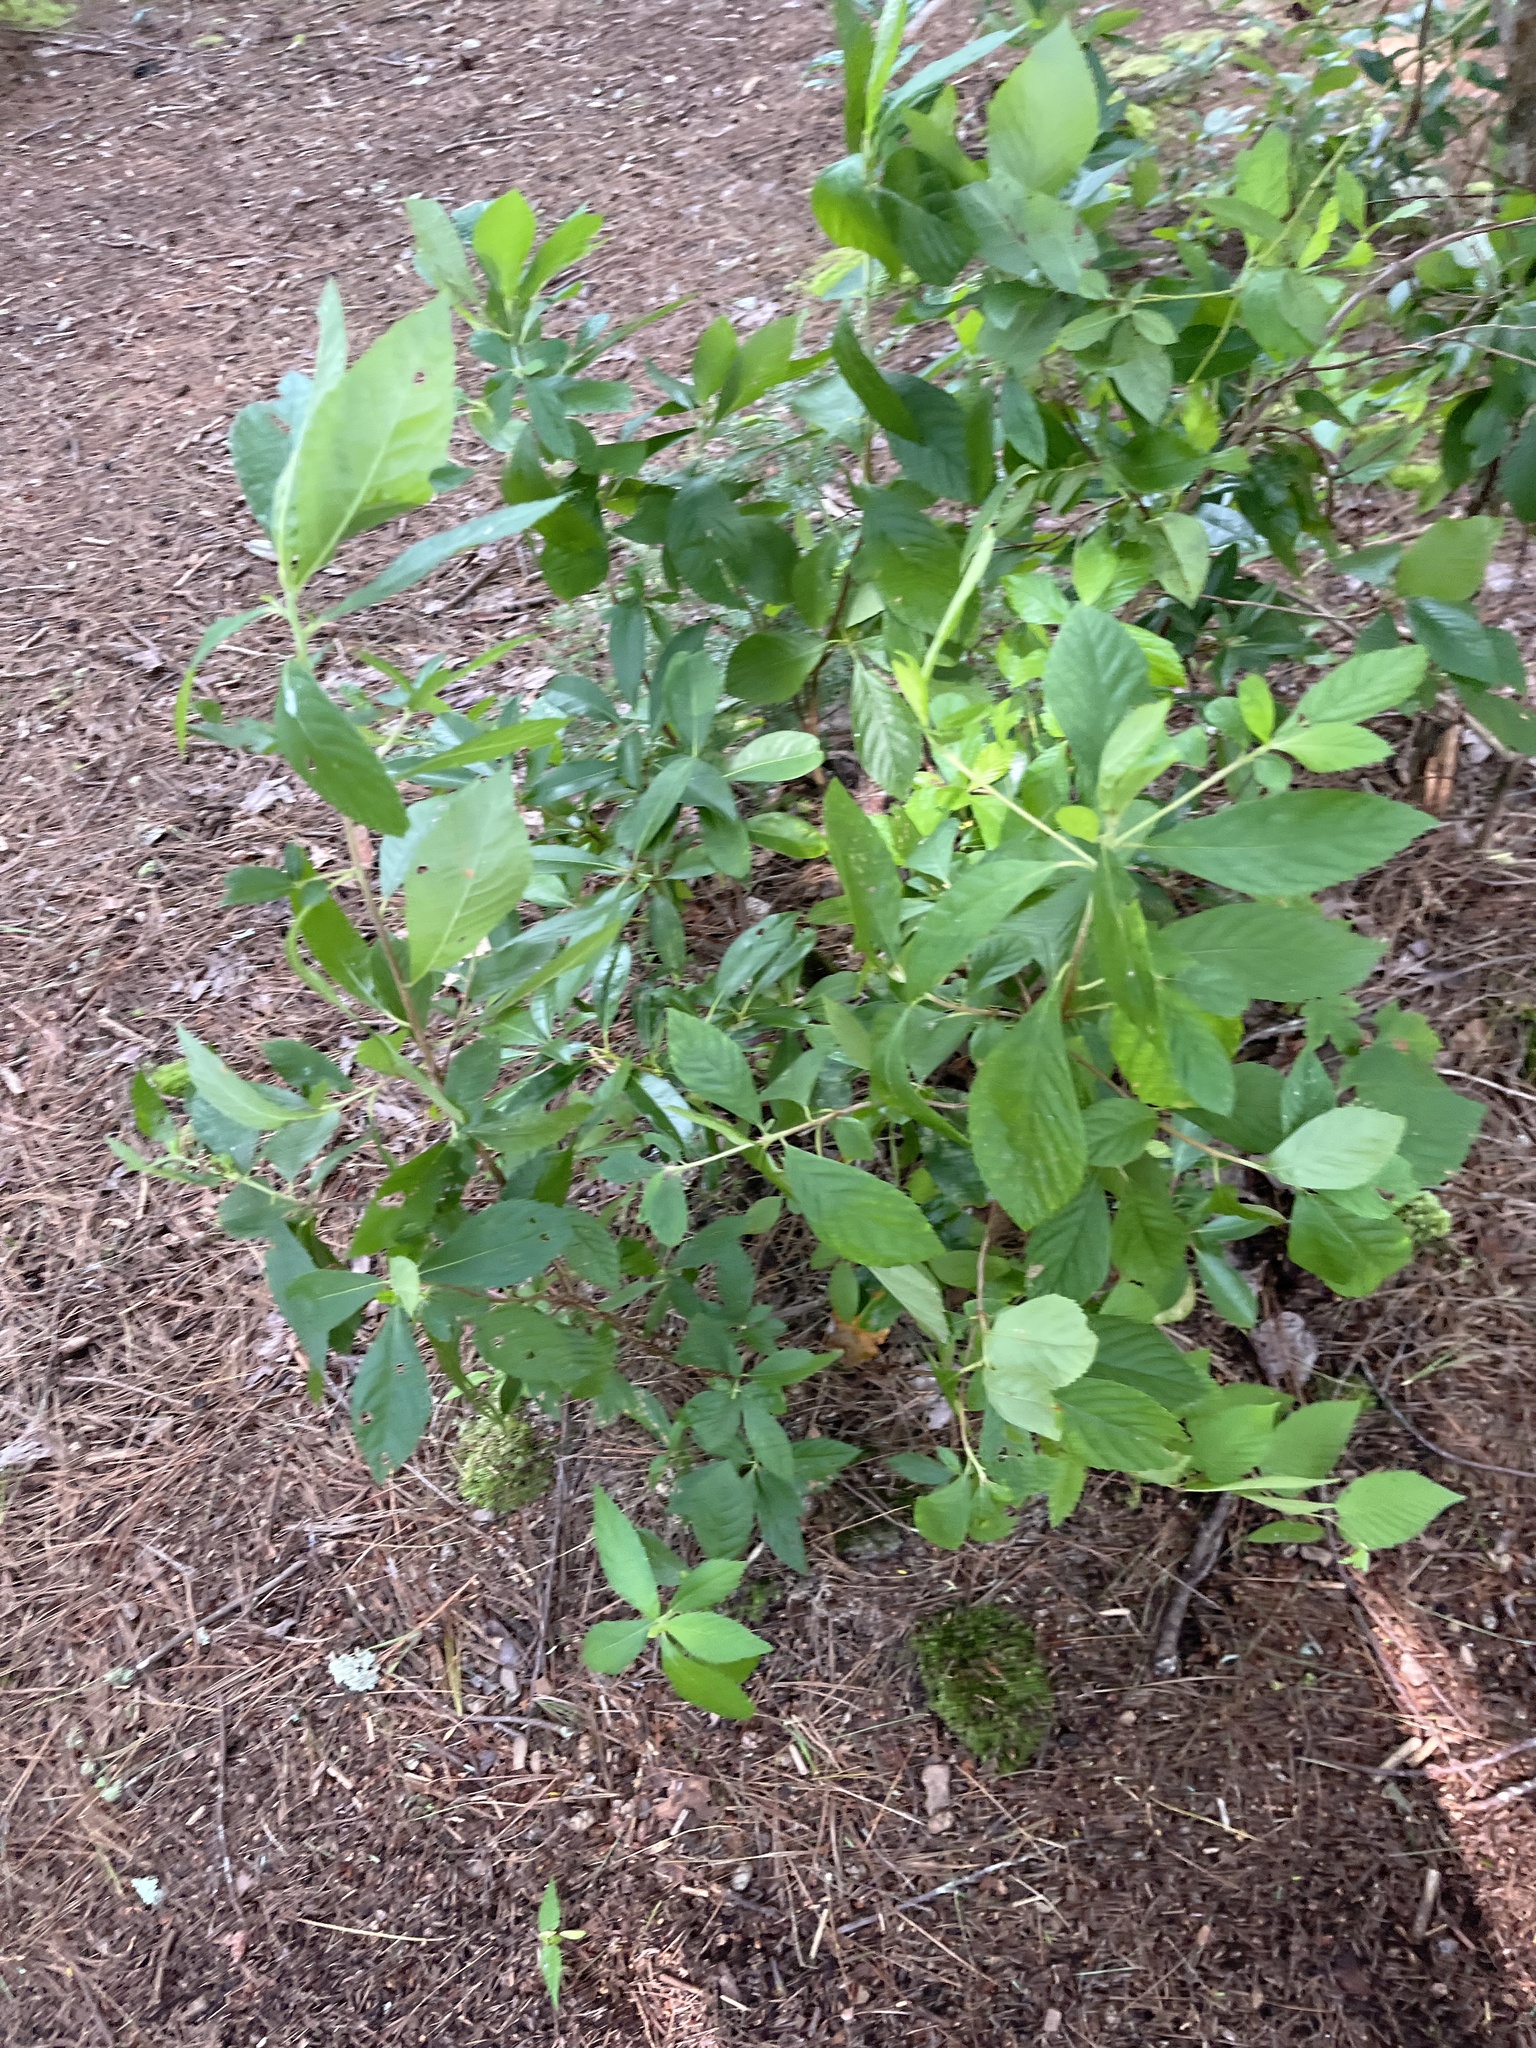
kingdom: Plantae
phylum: Tracheophyta
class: Magnoliopsida
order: Ericales
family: Clethraceae
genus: Clethra
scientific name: Clethra alnifolia
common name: Sweet pepperbush
